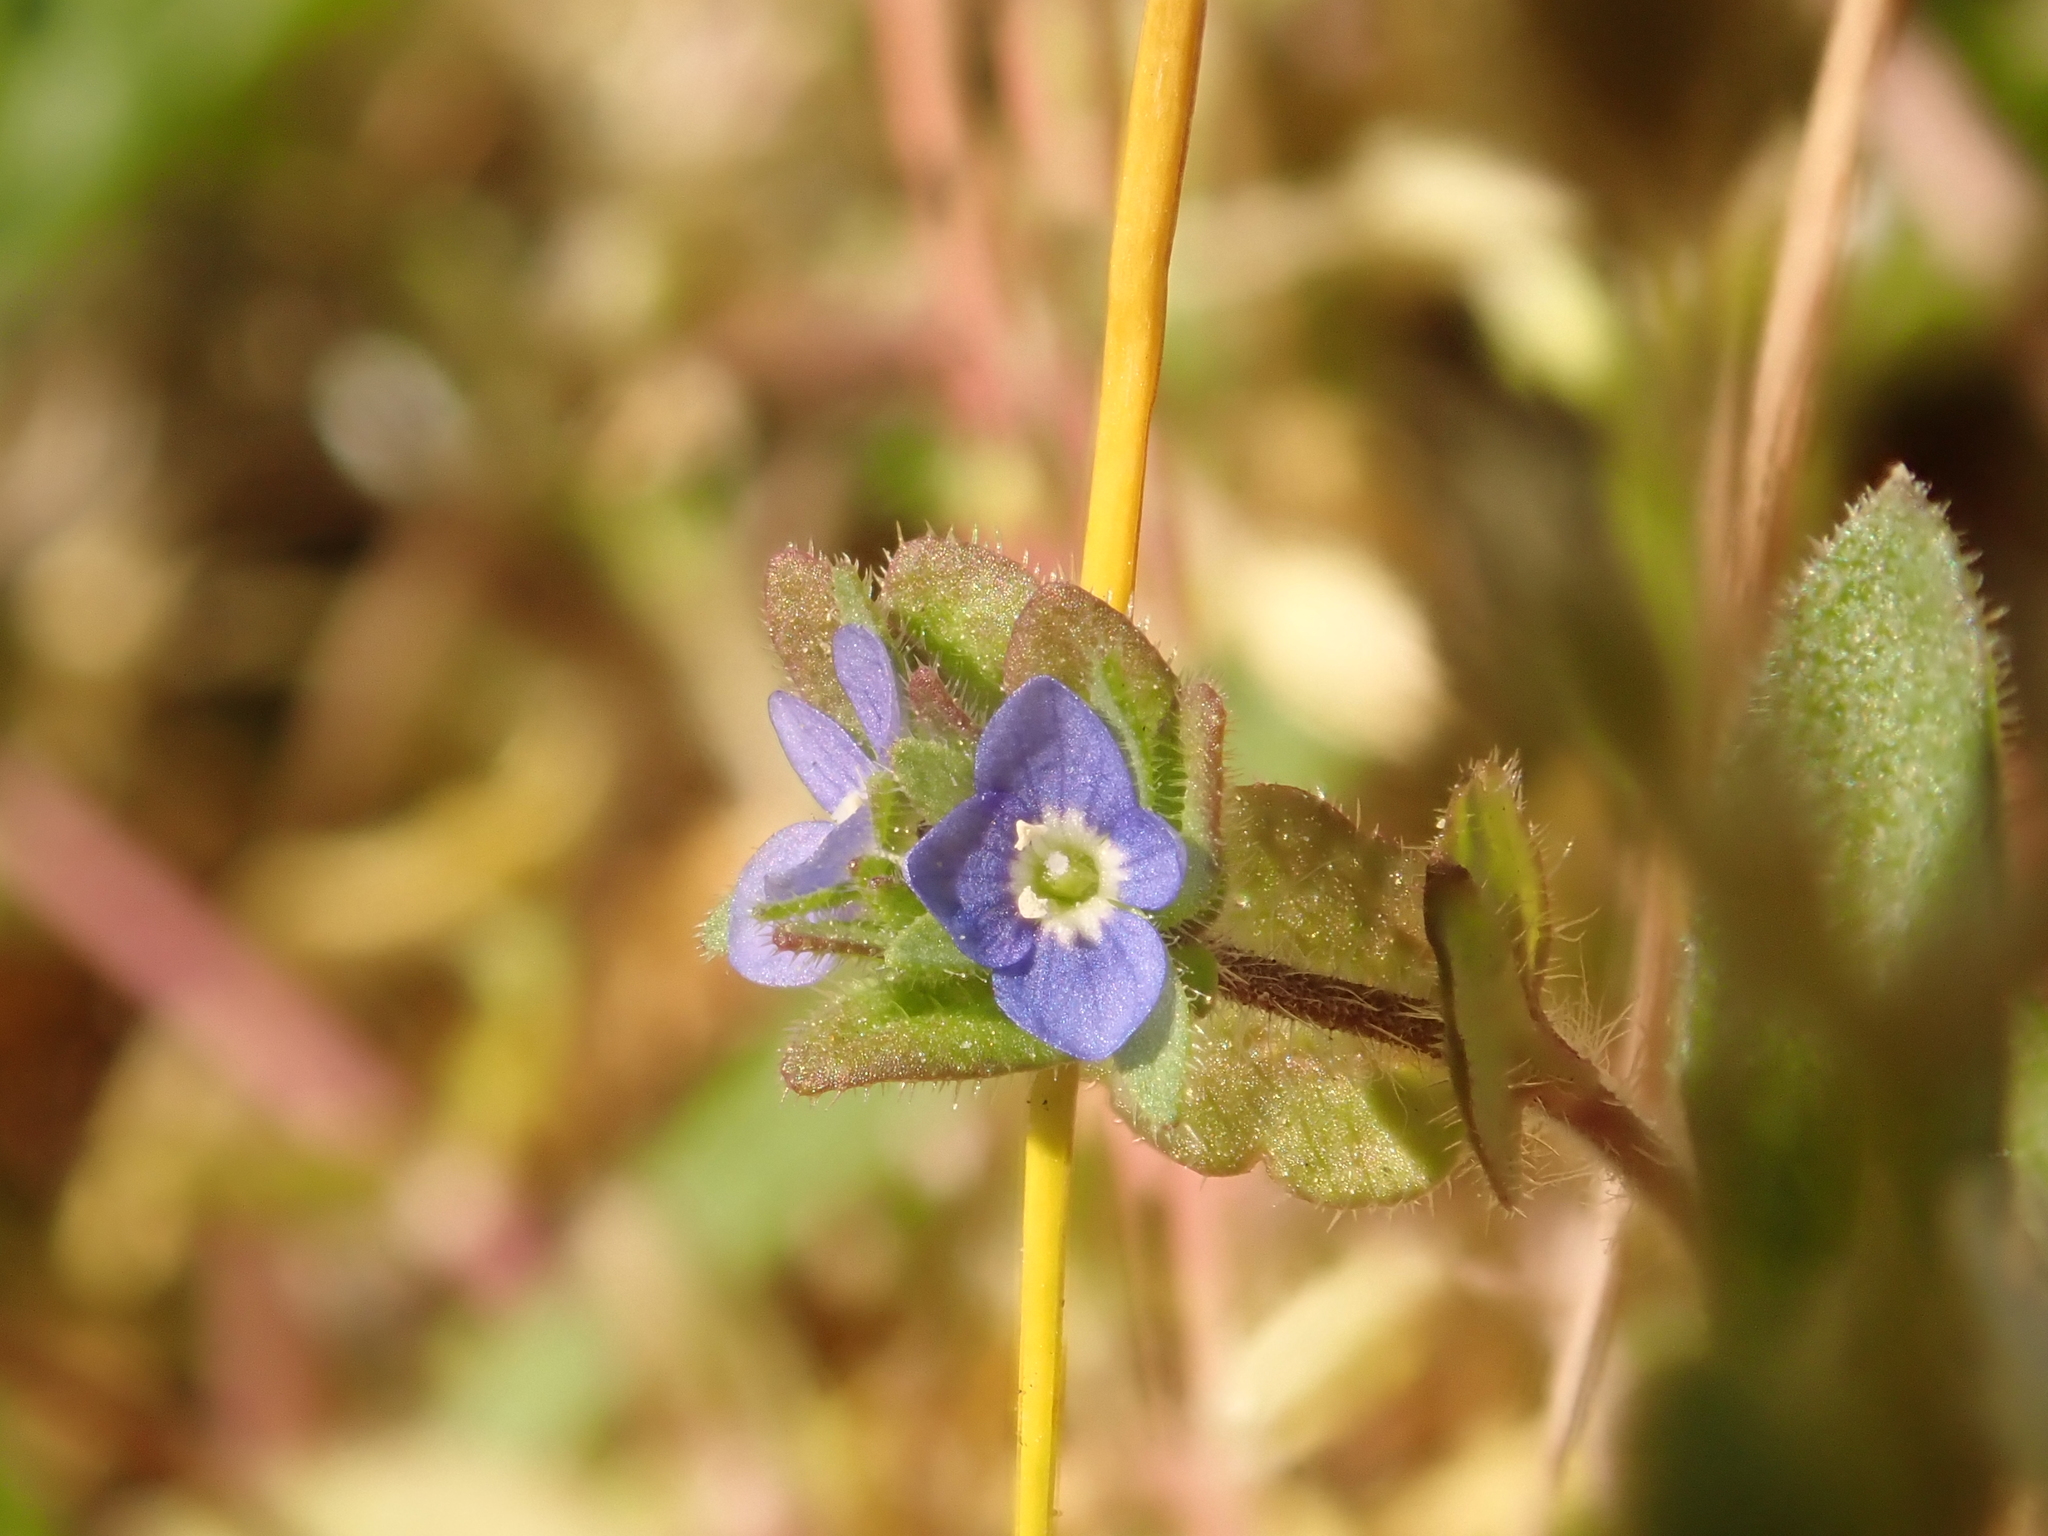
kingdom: Plantae
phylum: Tracheophyta
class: Magnoliopsida
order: Lamiales
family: Plantaginaceae
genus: Veronica
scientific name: Veronica arvensis
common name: Corn speedwell
